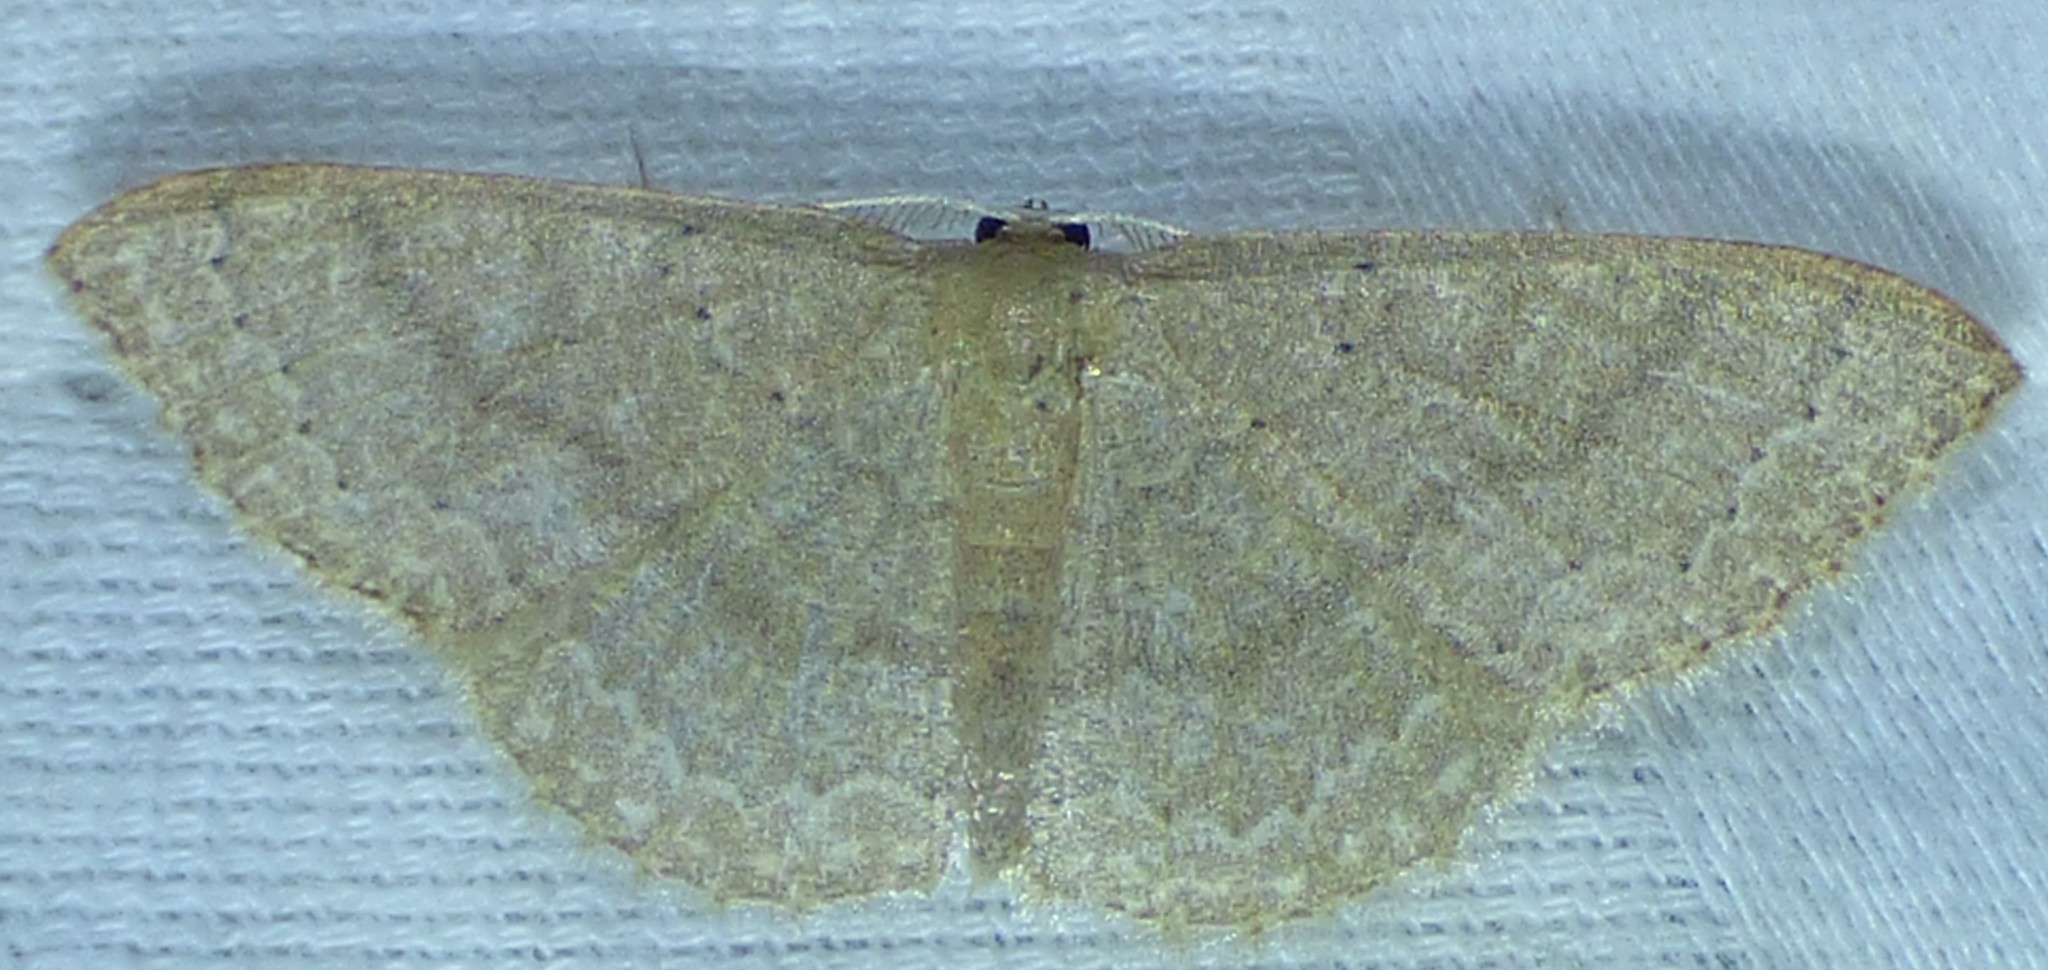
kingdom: Animalia
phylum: Arthropoda
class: Insecta
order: Lepidoptera
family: Geometridae
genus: Pleuroprucha
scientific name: Pleuroprucha insulsaria
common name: Common tan wave
